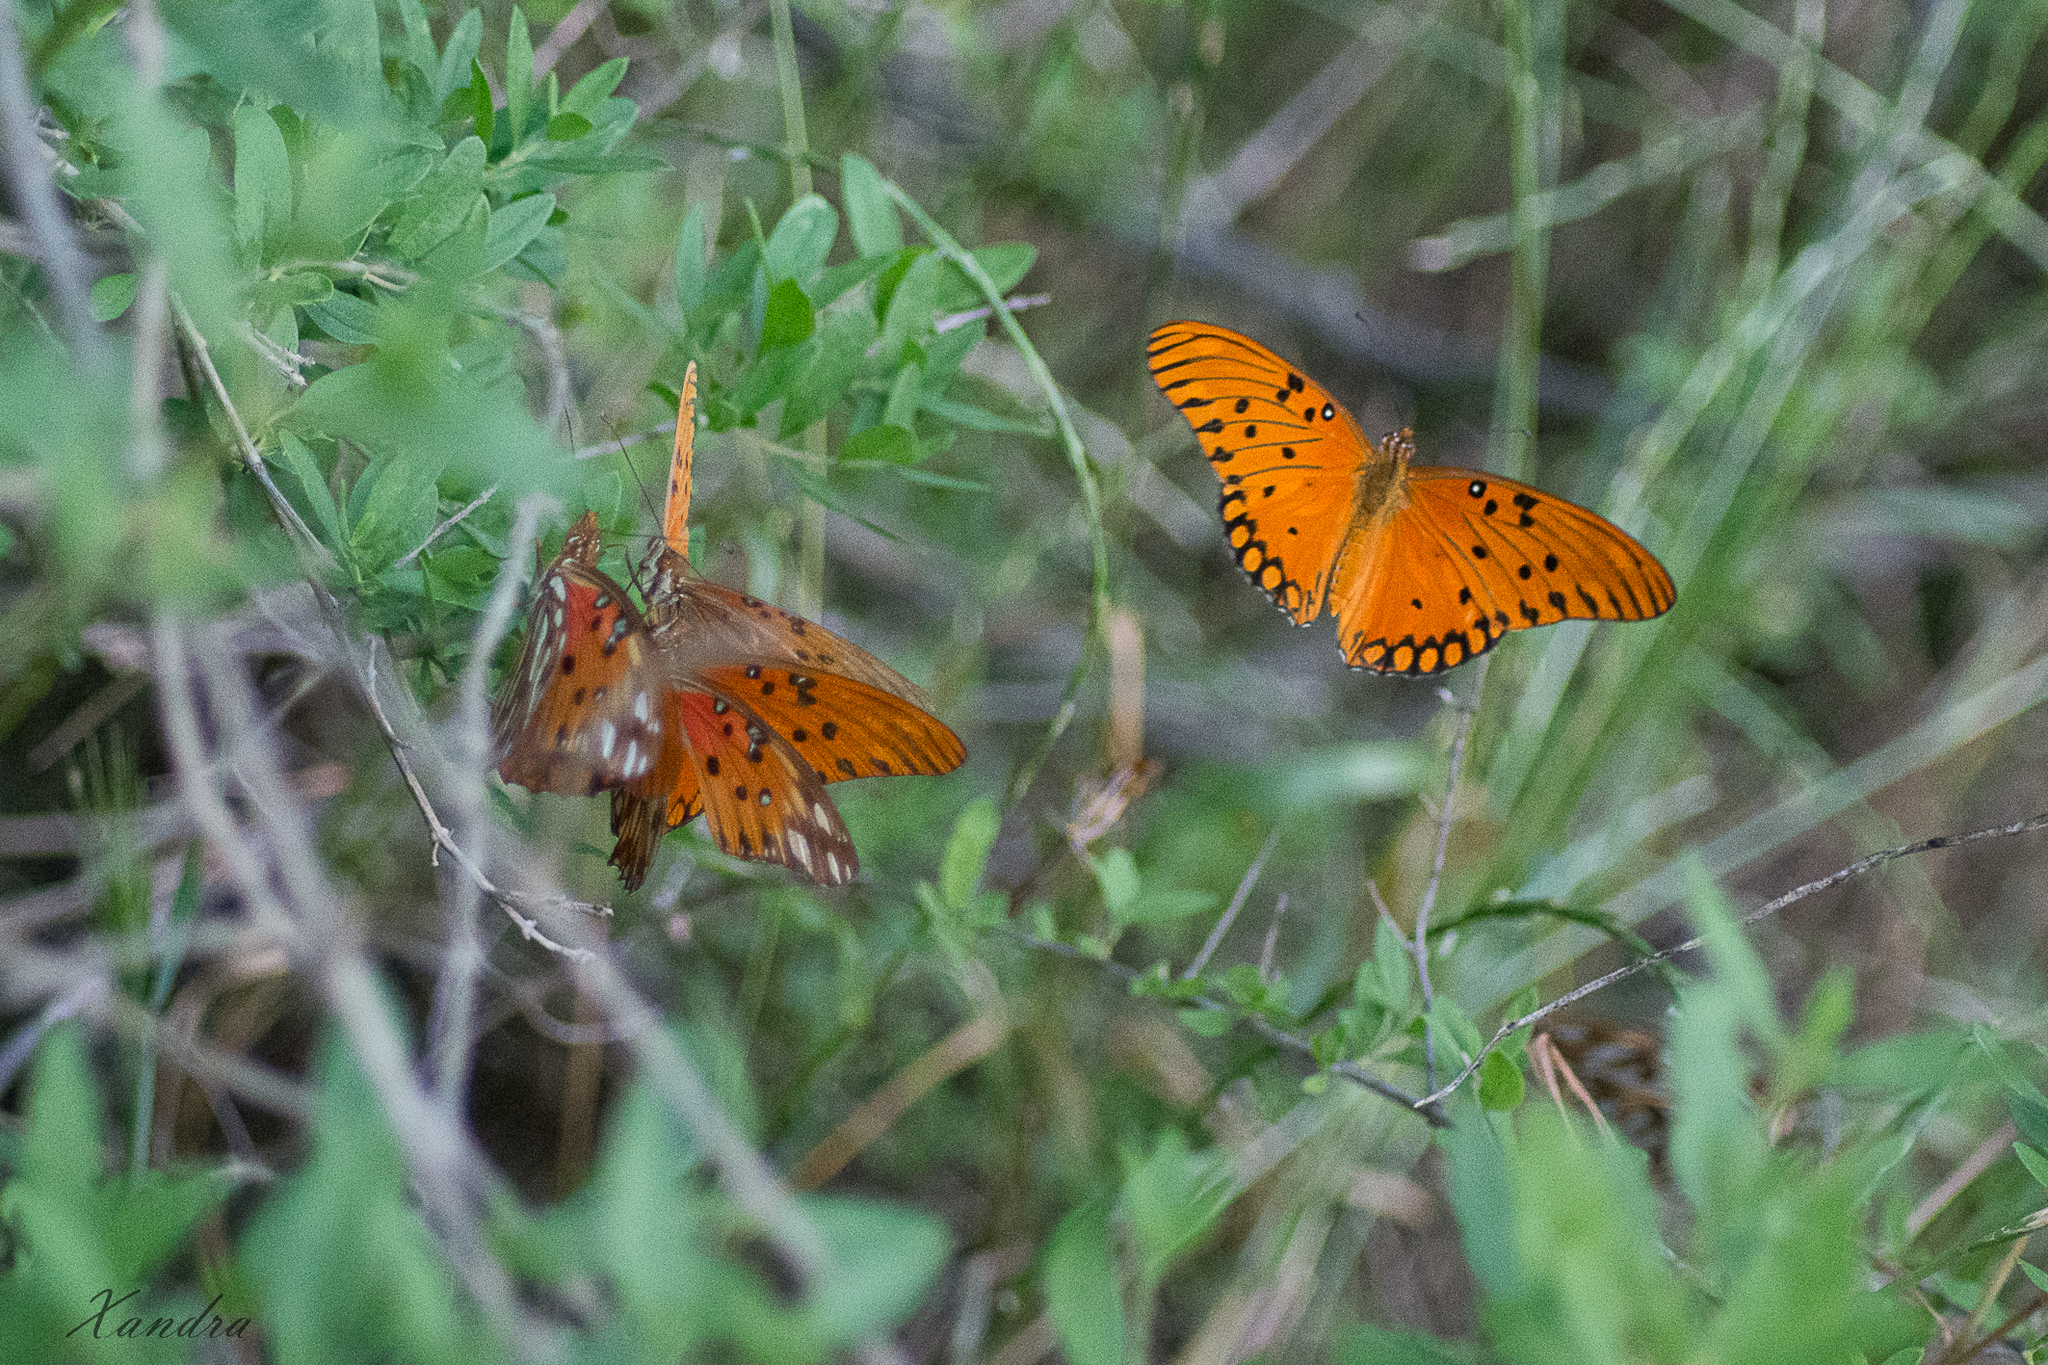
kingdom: Animalia
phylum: Arthropoda
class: Insecta
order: Lepidoptera
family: Nymphalidae
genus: Dione
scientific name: Dione vanillae
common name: Gulf fritillary
